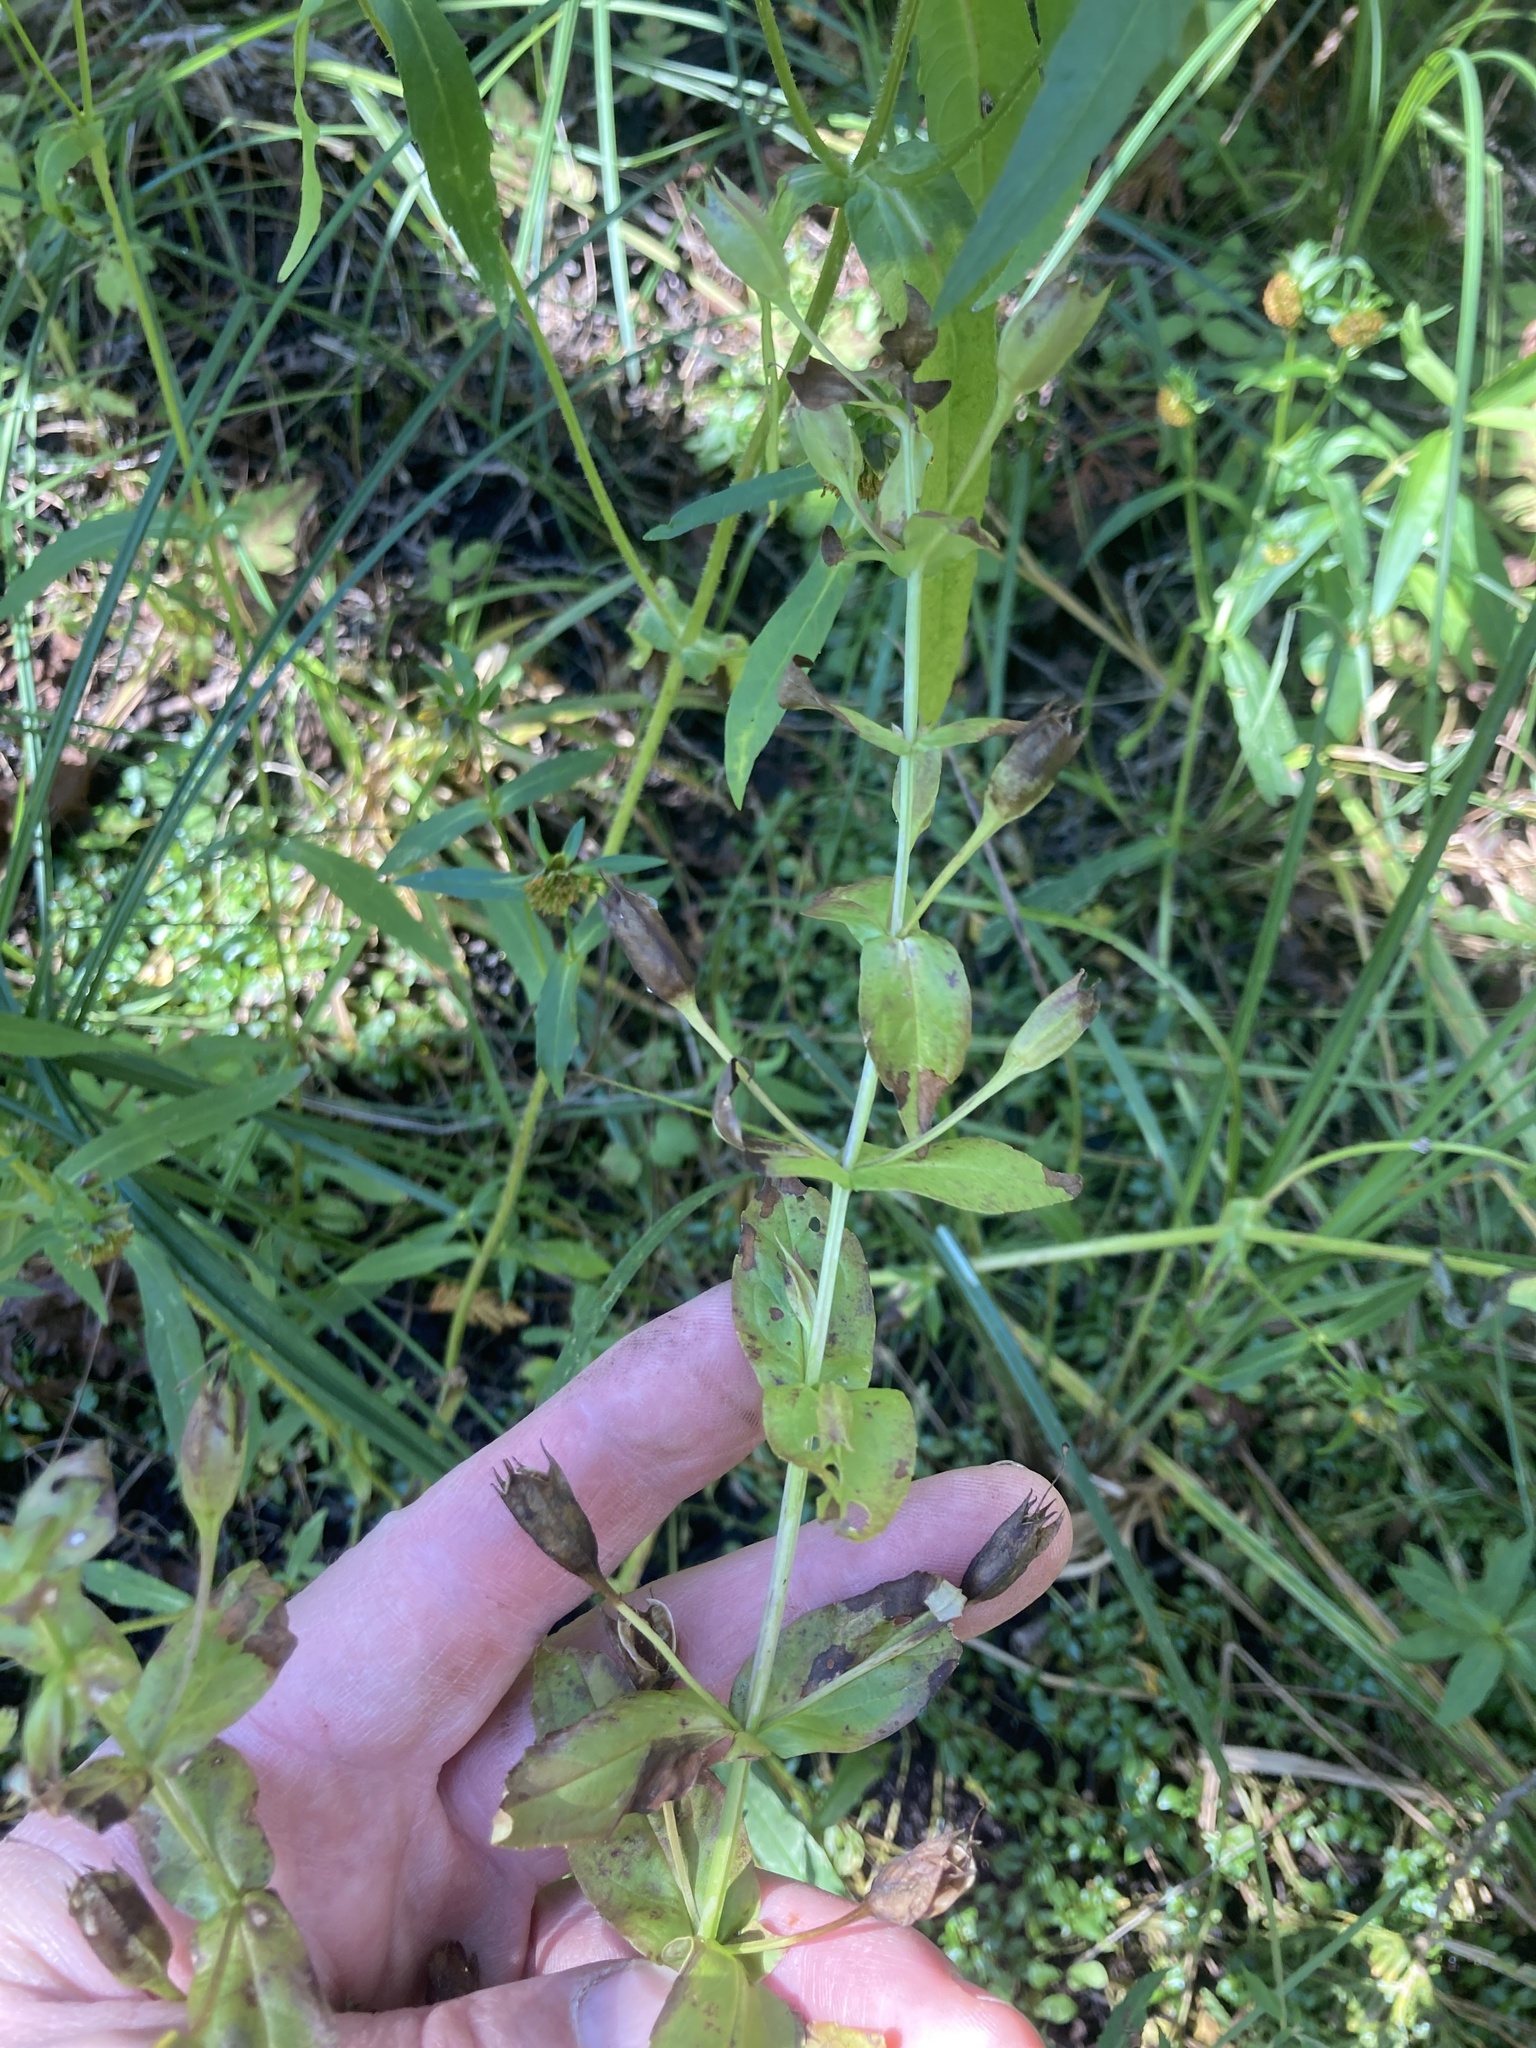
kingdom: Plantae
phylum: Tracheophyta
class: Magnoliopsida
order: Lamiales
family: Phrymaceae
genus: Mimulus
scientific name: Mimulus ringens
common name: Allegheny monkeyflower
